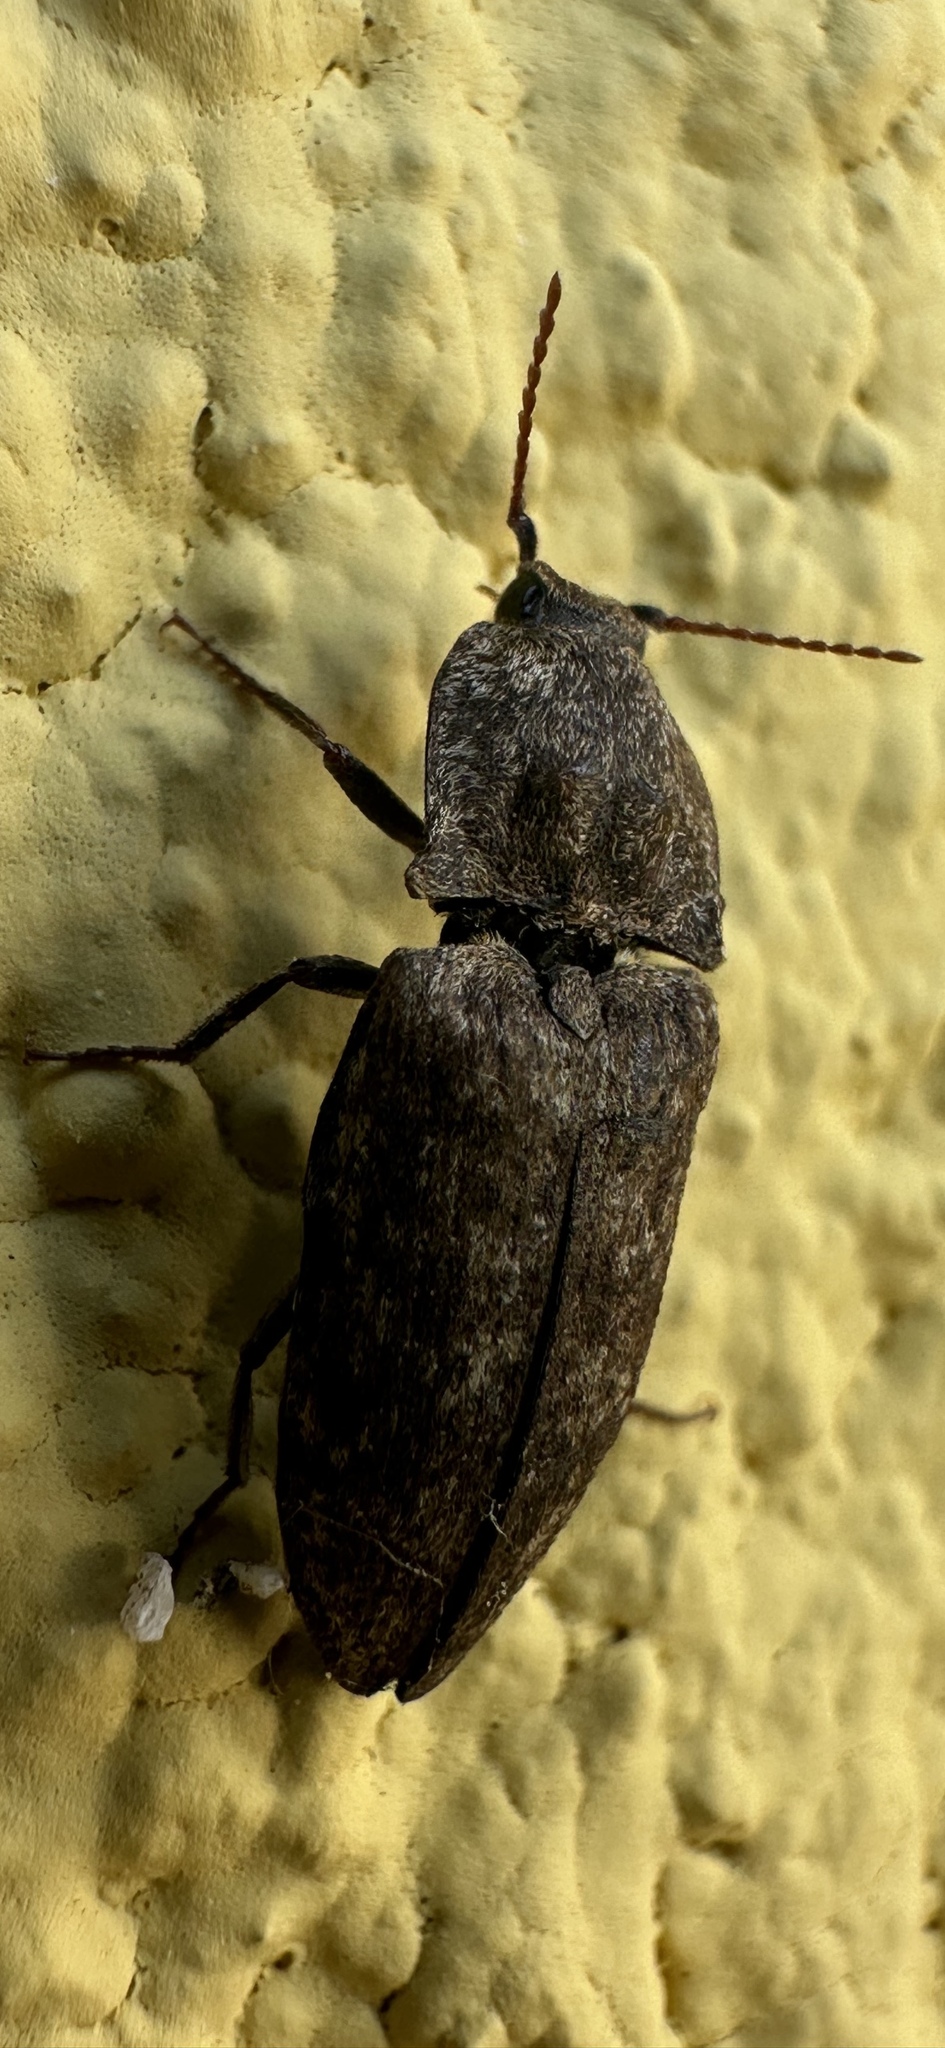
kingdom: Animalia
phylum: Arthropoda
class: Insecta
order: Coleoptera
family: Elateridae
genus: Agrypnus
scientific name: Agrypnus murinus
